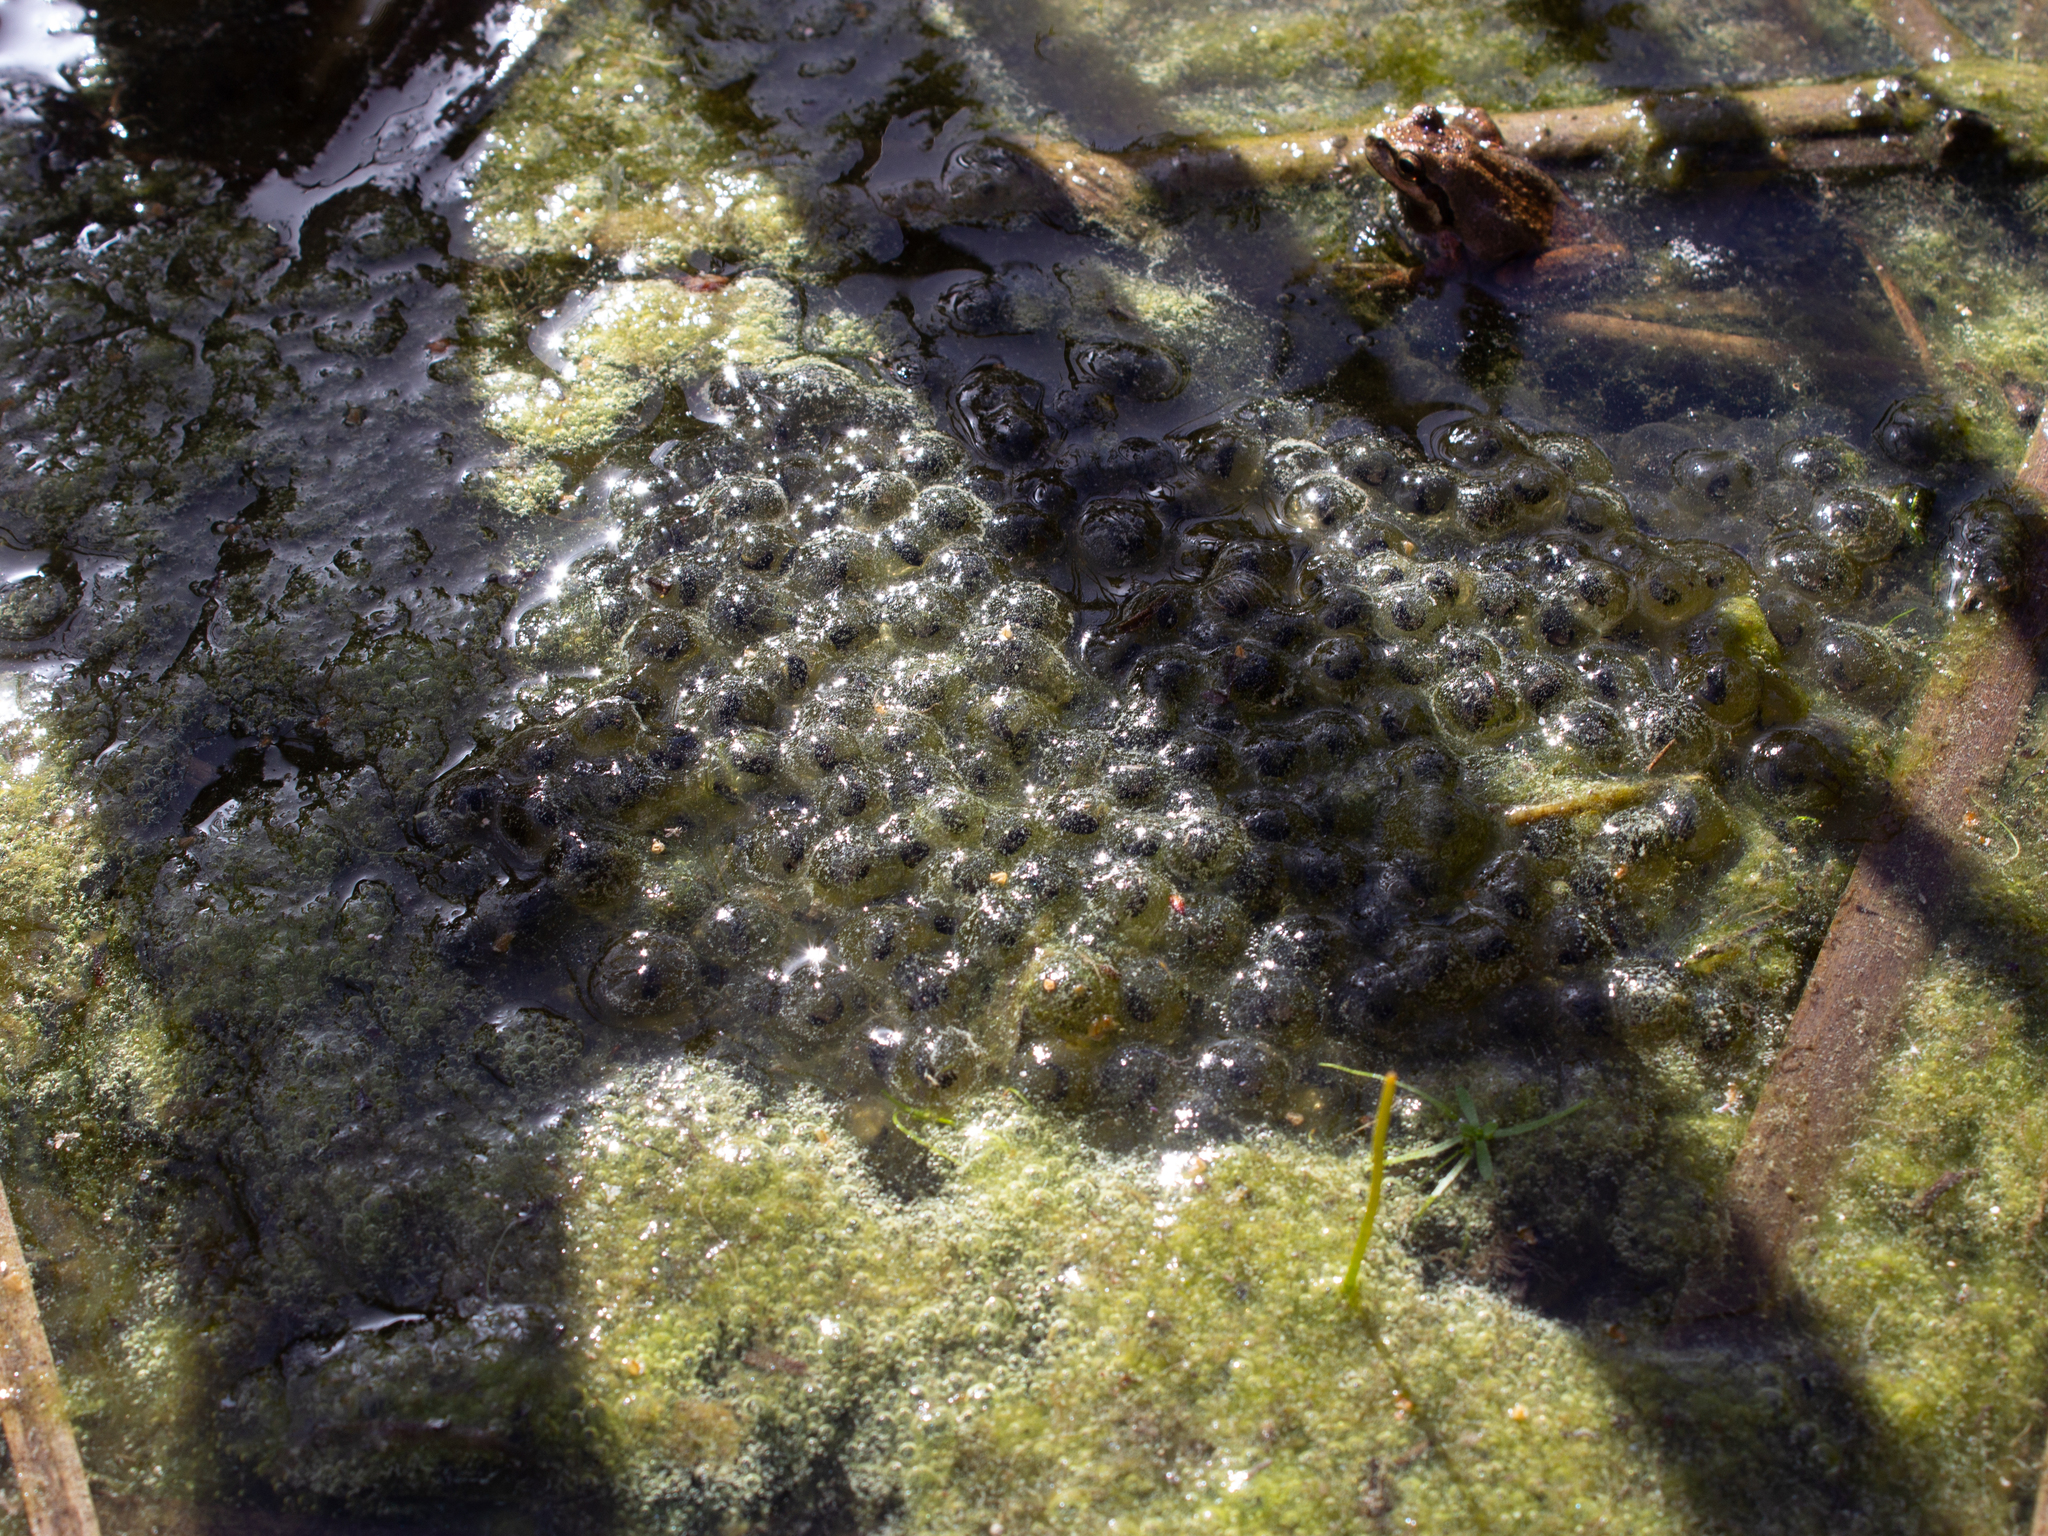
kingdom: Animalia
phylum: Chordata
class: Amphibia
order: Anura
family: Ranidae
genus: Rana
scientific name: Rana draytonii
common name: California red-legged frog
